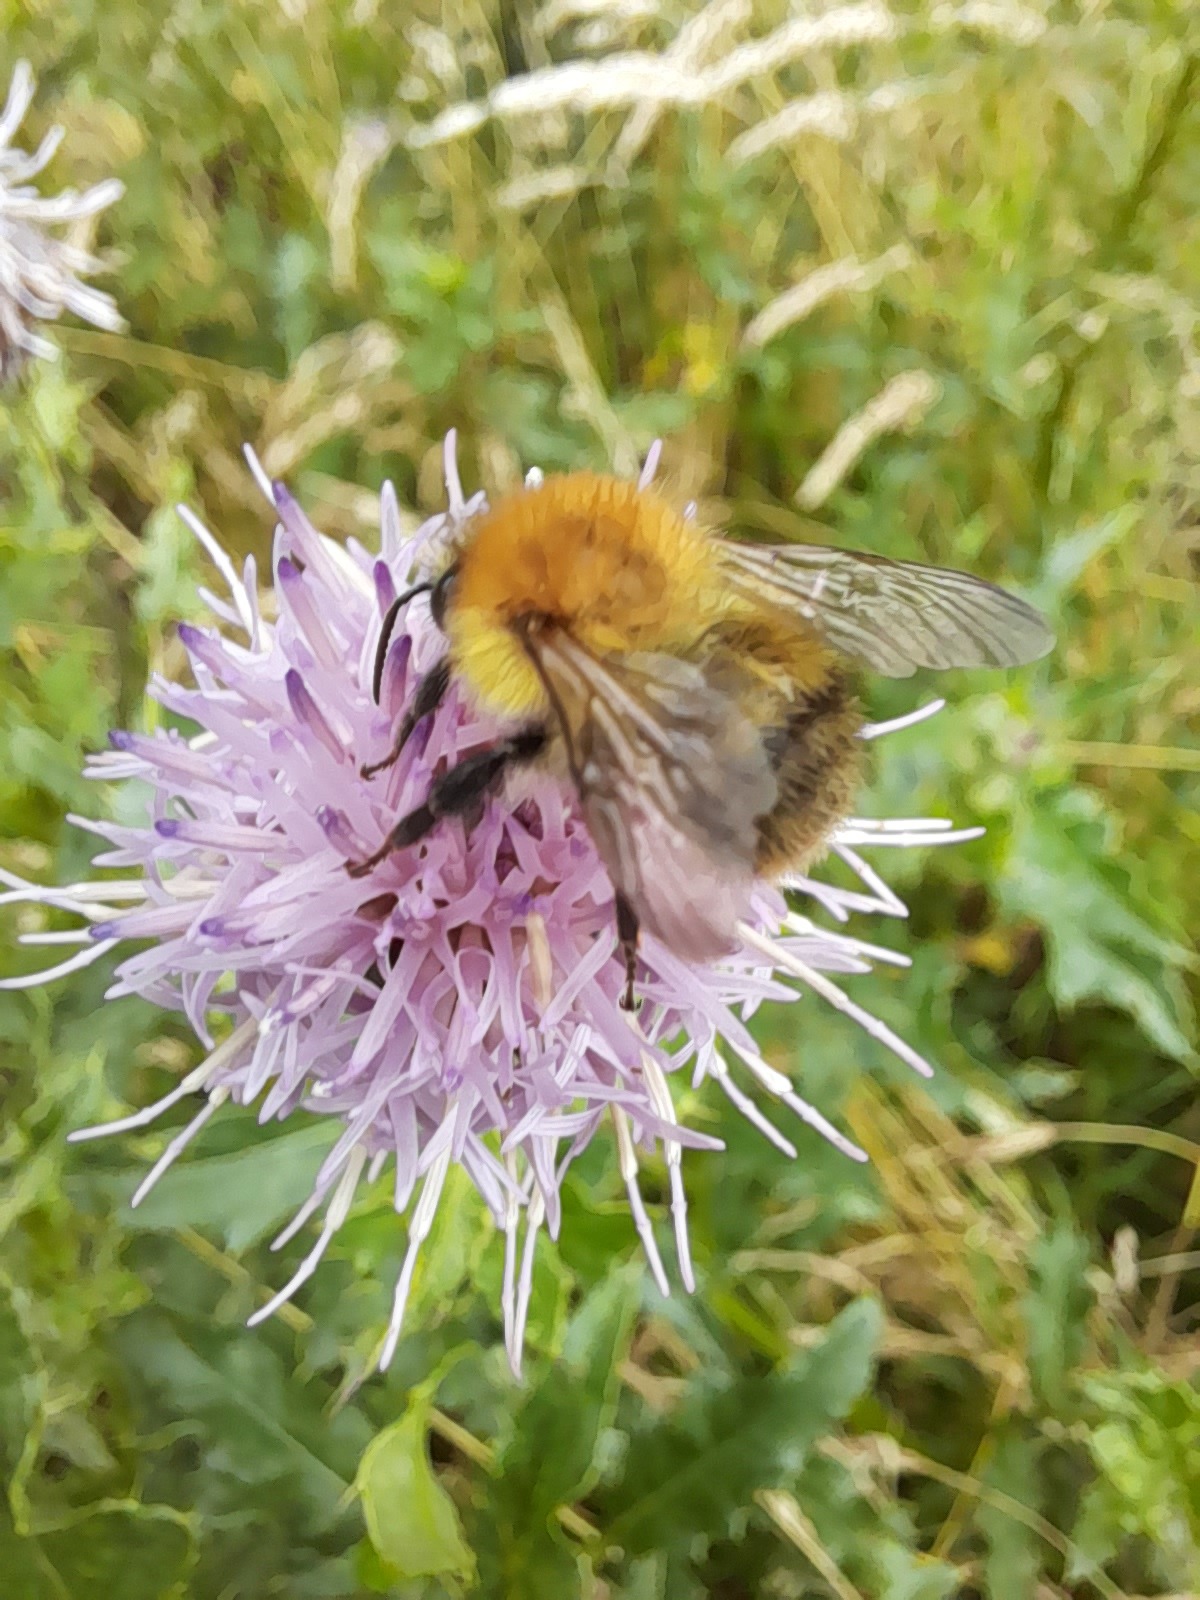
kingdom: Animalia
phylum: Arthropoda
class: Insecta
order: Hymenoptera
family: Apidae
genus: Bombus
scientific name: Bombus pascuorum
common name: Common carder bee
